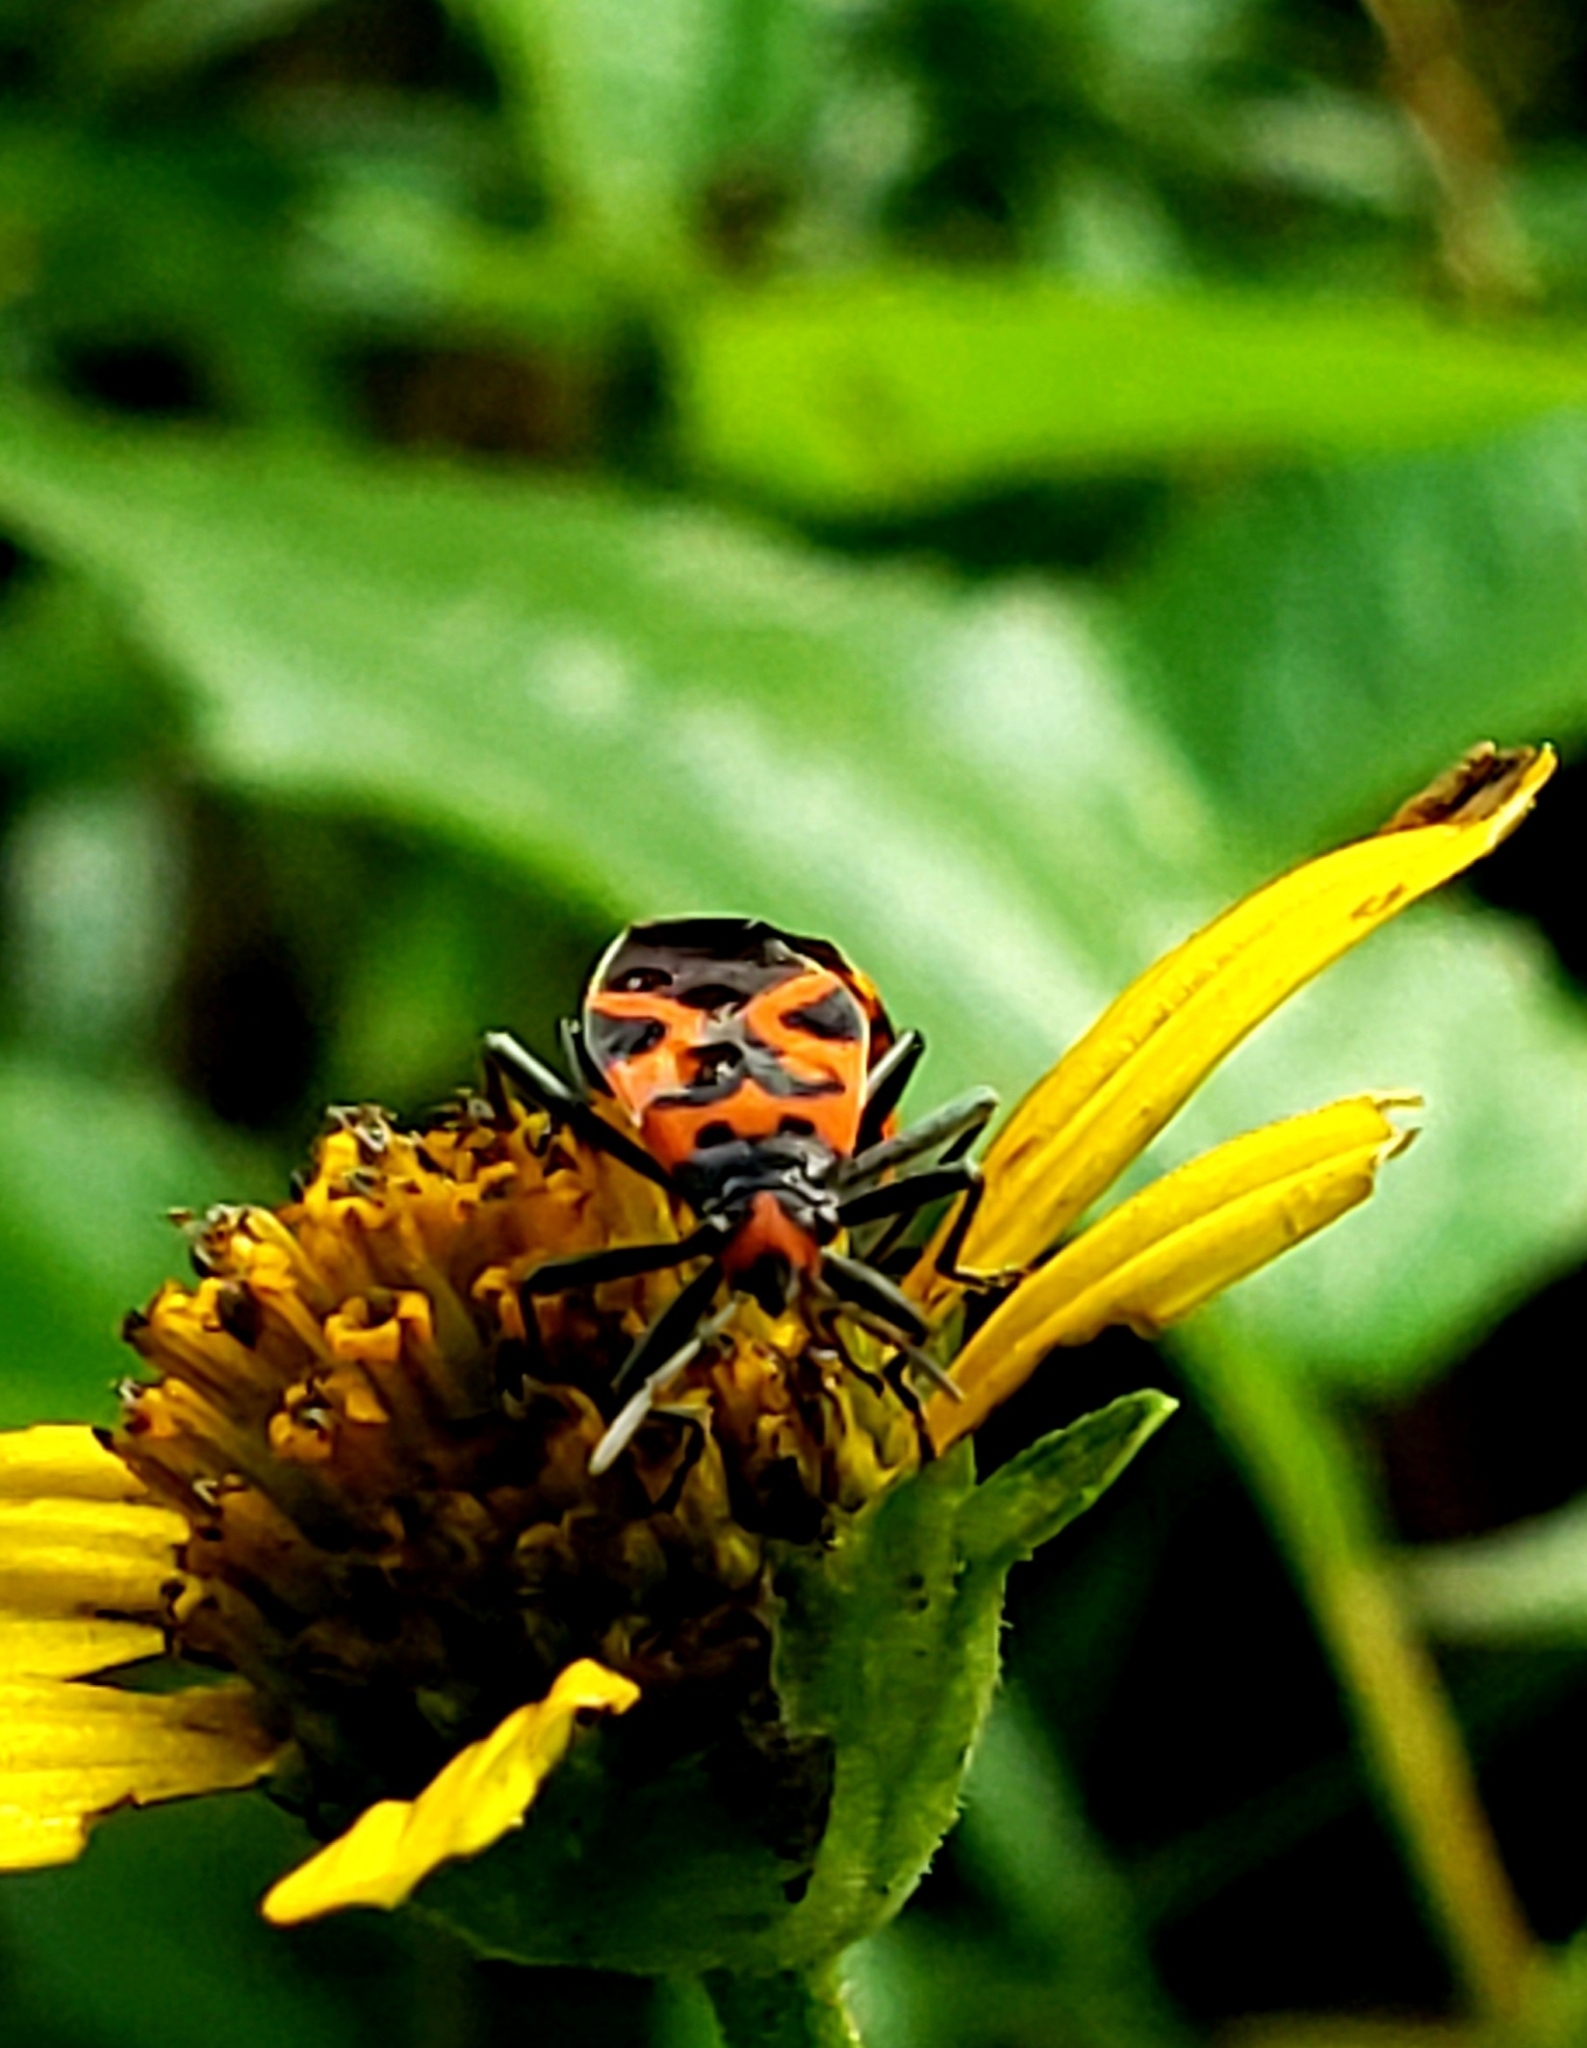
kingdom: Animalia
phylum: Arthropoda
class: Insecta
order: Hemiptera
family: Lygaeidae
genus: Lygaeus
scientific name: Lygaeus turcicus
